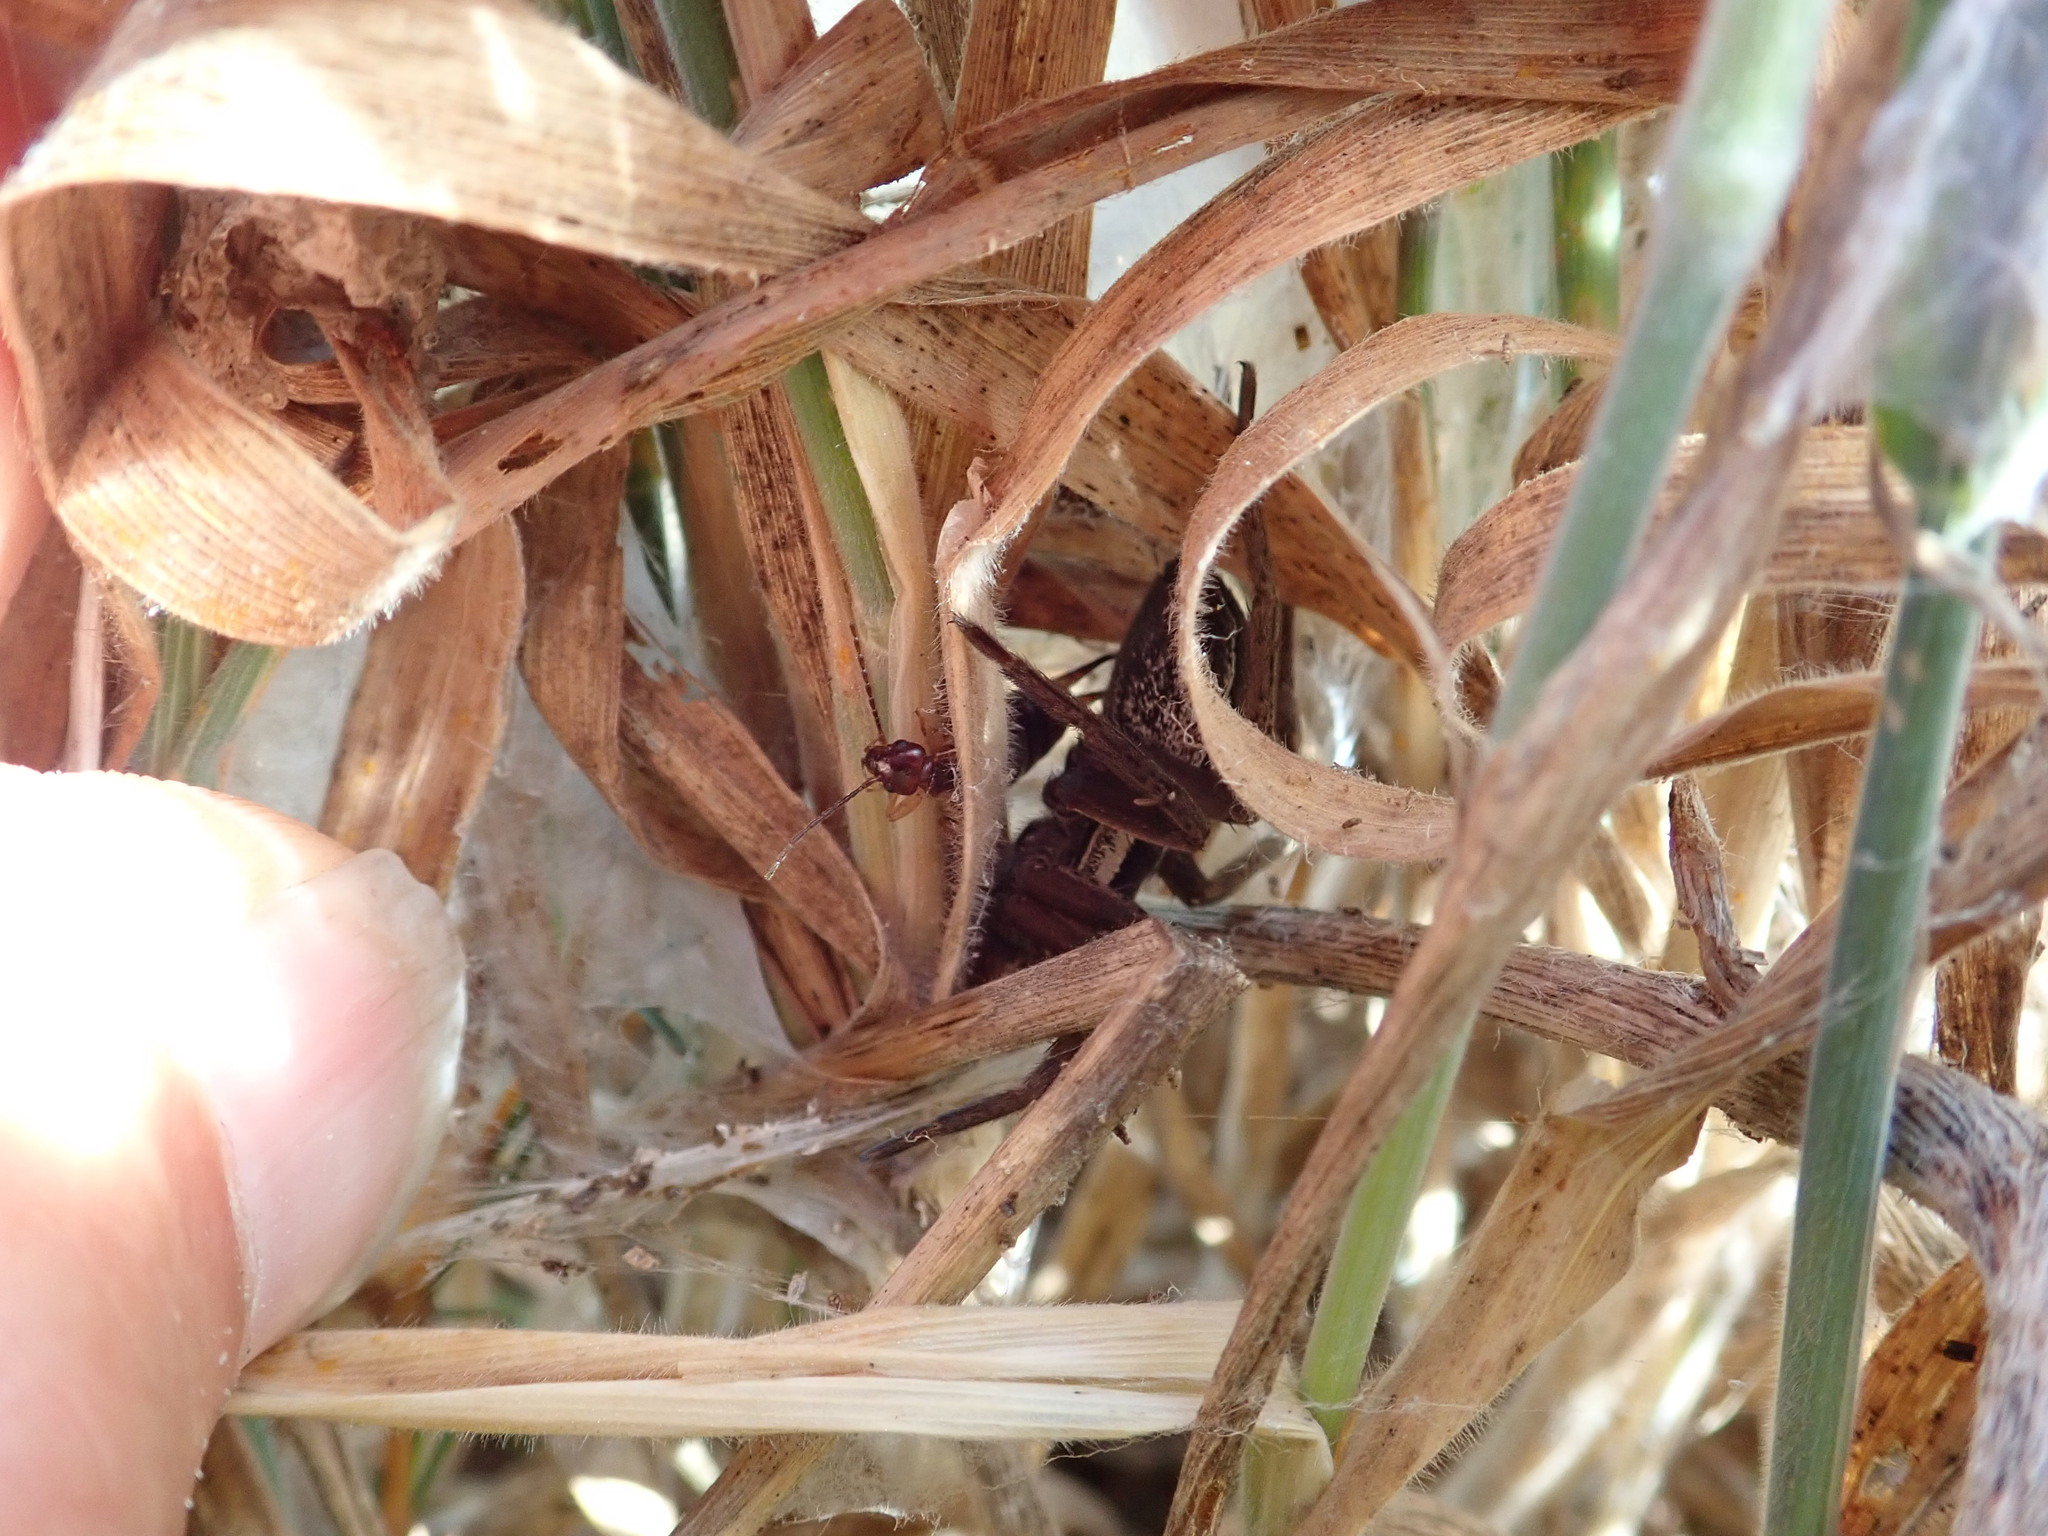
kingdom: Animalia
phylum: Arthropoda
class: Arachnida
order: Araneae
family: Pisauridae
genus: Dolomedes
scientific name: Dolomedes minor
